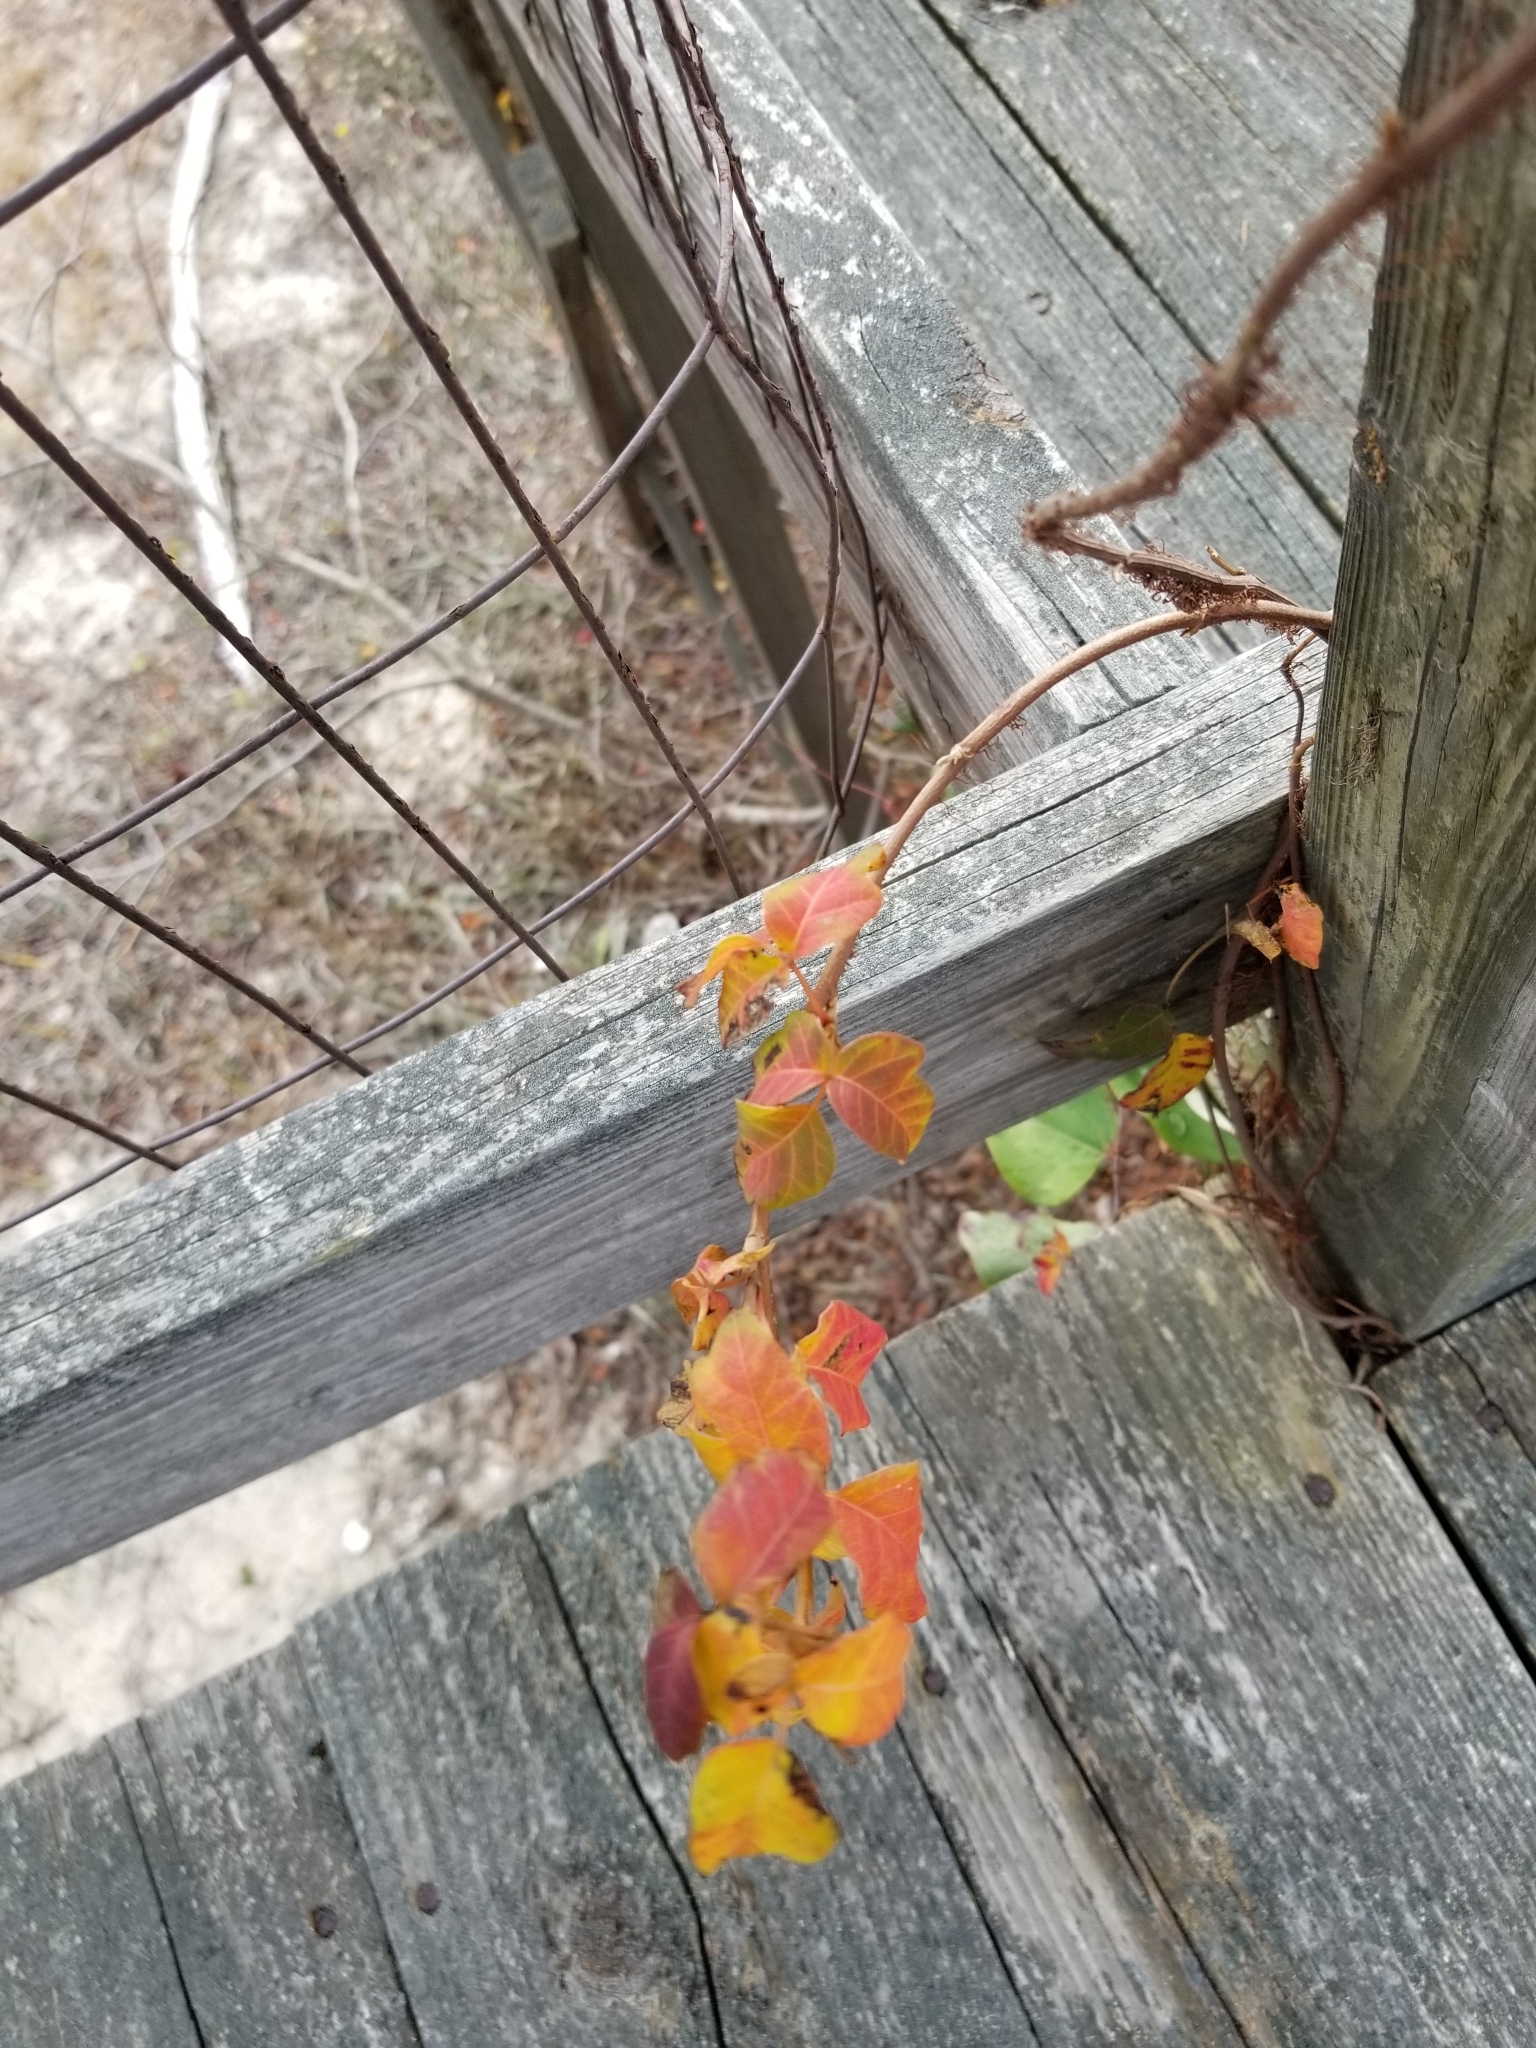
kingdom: Plantae
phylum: Tracheophyta
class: Magnoliopsida
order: Sapindales
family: Anacardiaceae
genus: Toxicodendron
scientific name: Toxicodendron radicans
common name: Poison ivy
